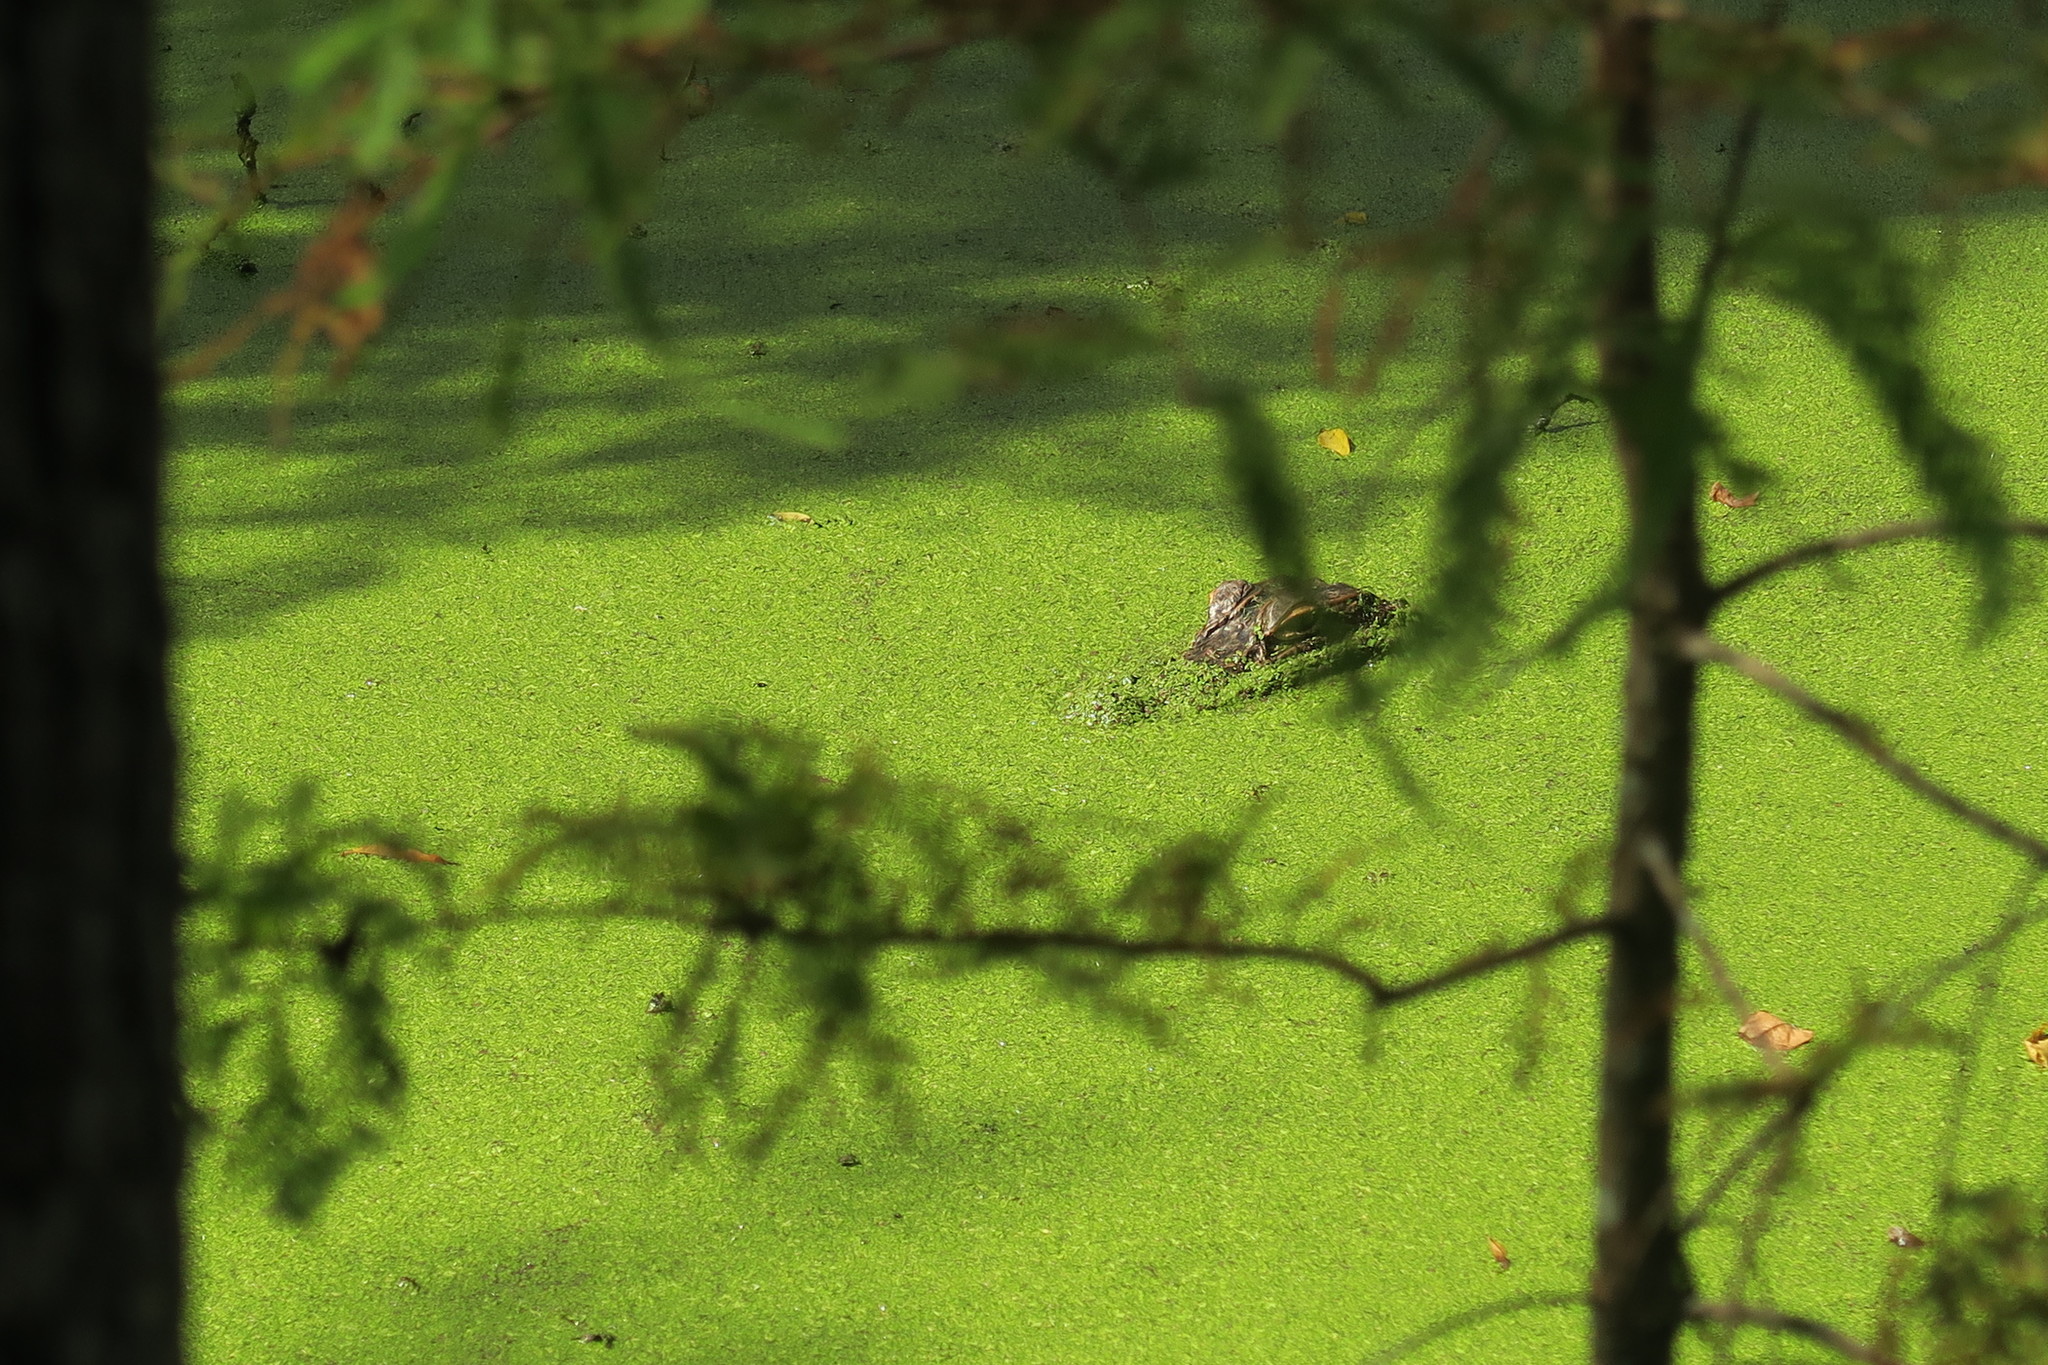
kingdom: Animalia
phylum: Chordata
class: Crocodylia
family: Alligatoridae
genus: Alligator
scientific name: Alligator mississippiensis
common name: American alligator
